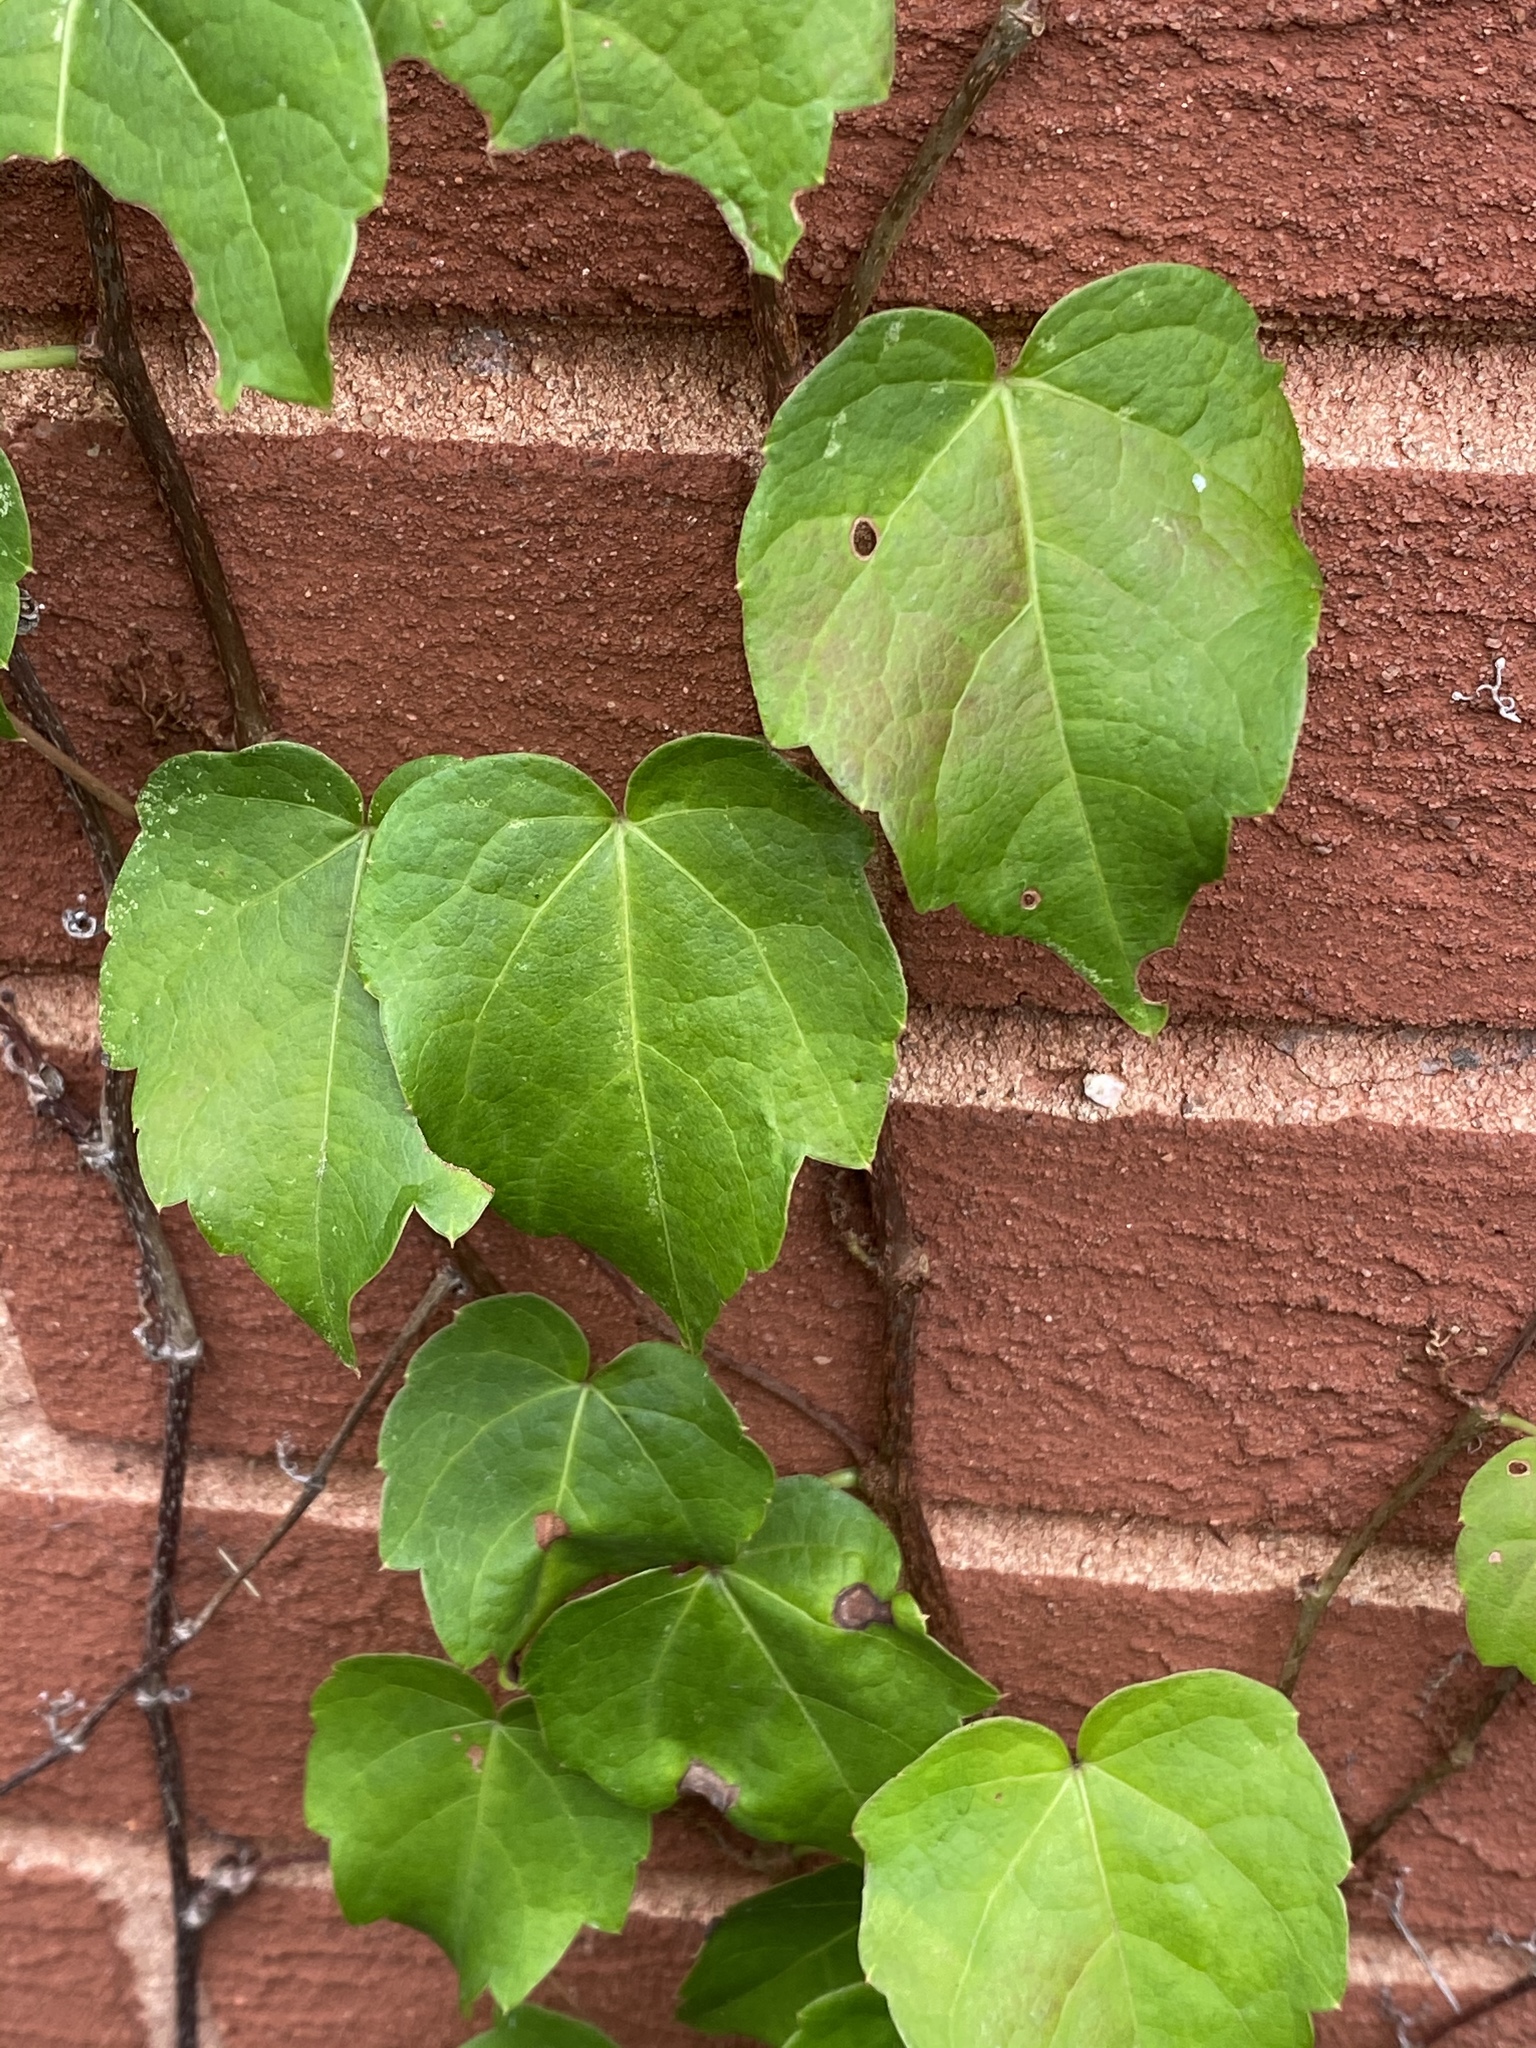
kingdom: Plantae
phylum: Tracheophyta
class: Magnoliopsida
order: Vitales
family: Vitaceae
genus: Parthenocissus
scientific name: Parthenocissus tricuspidata
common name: Boston ivy
